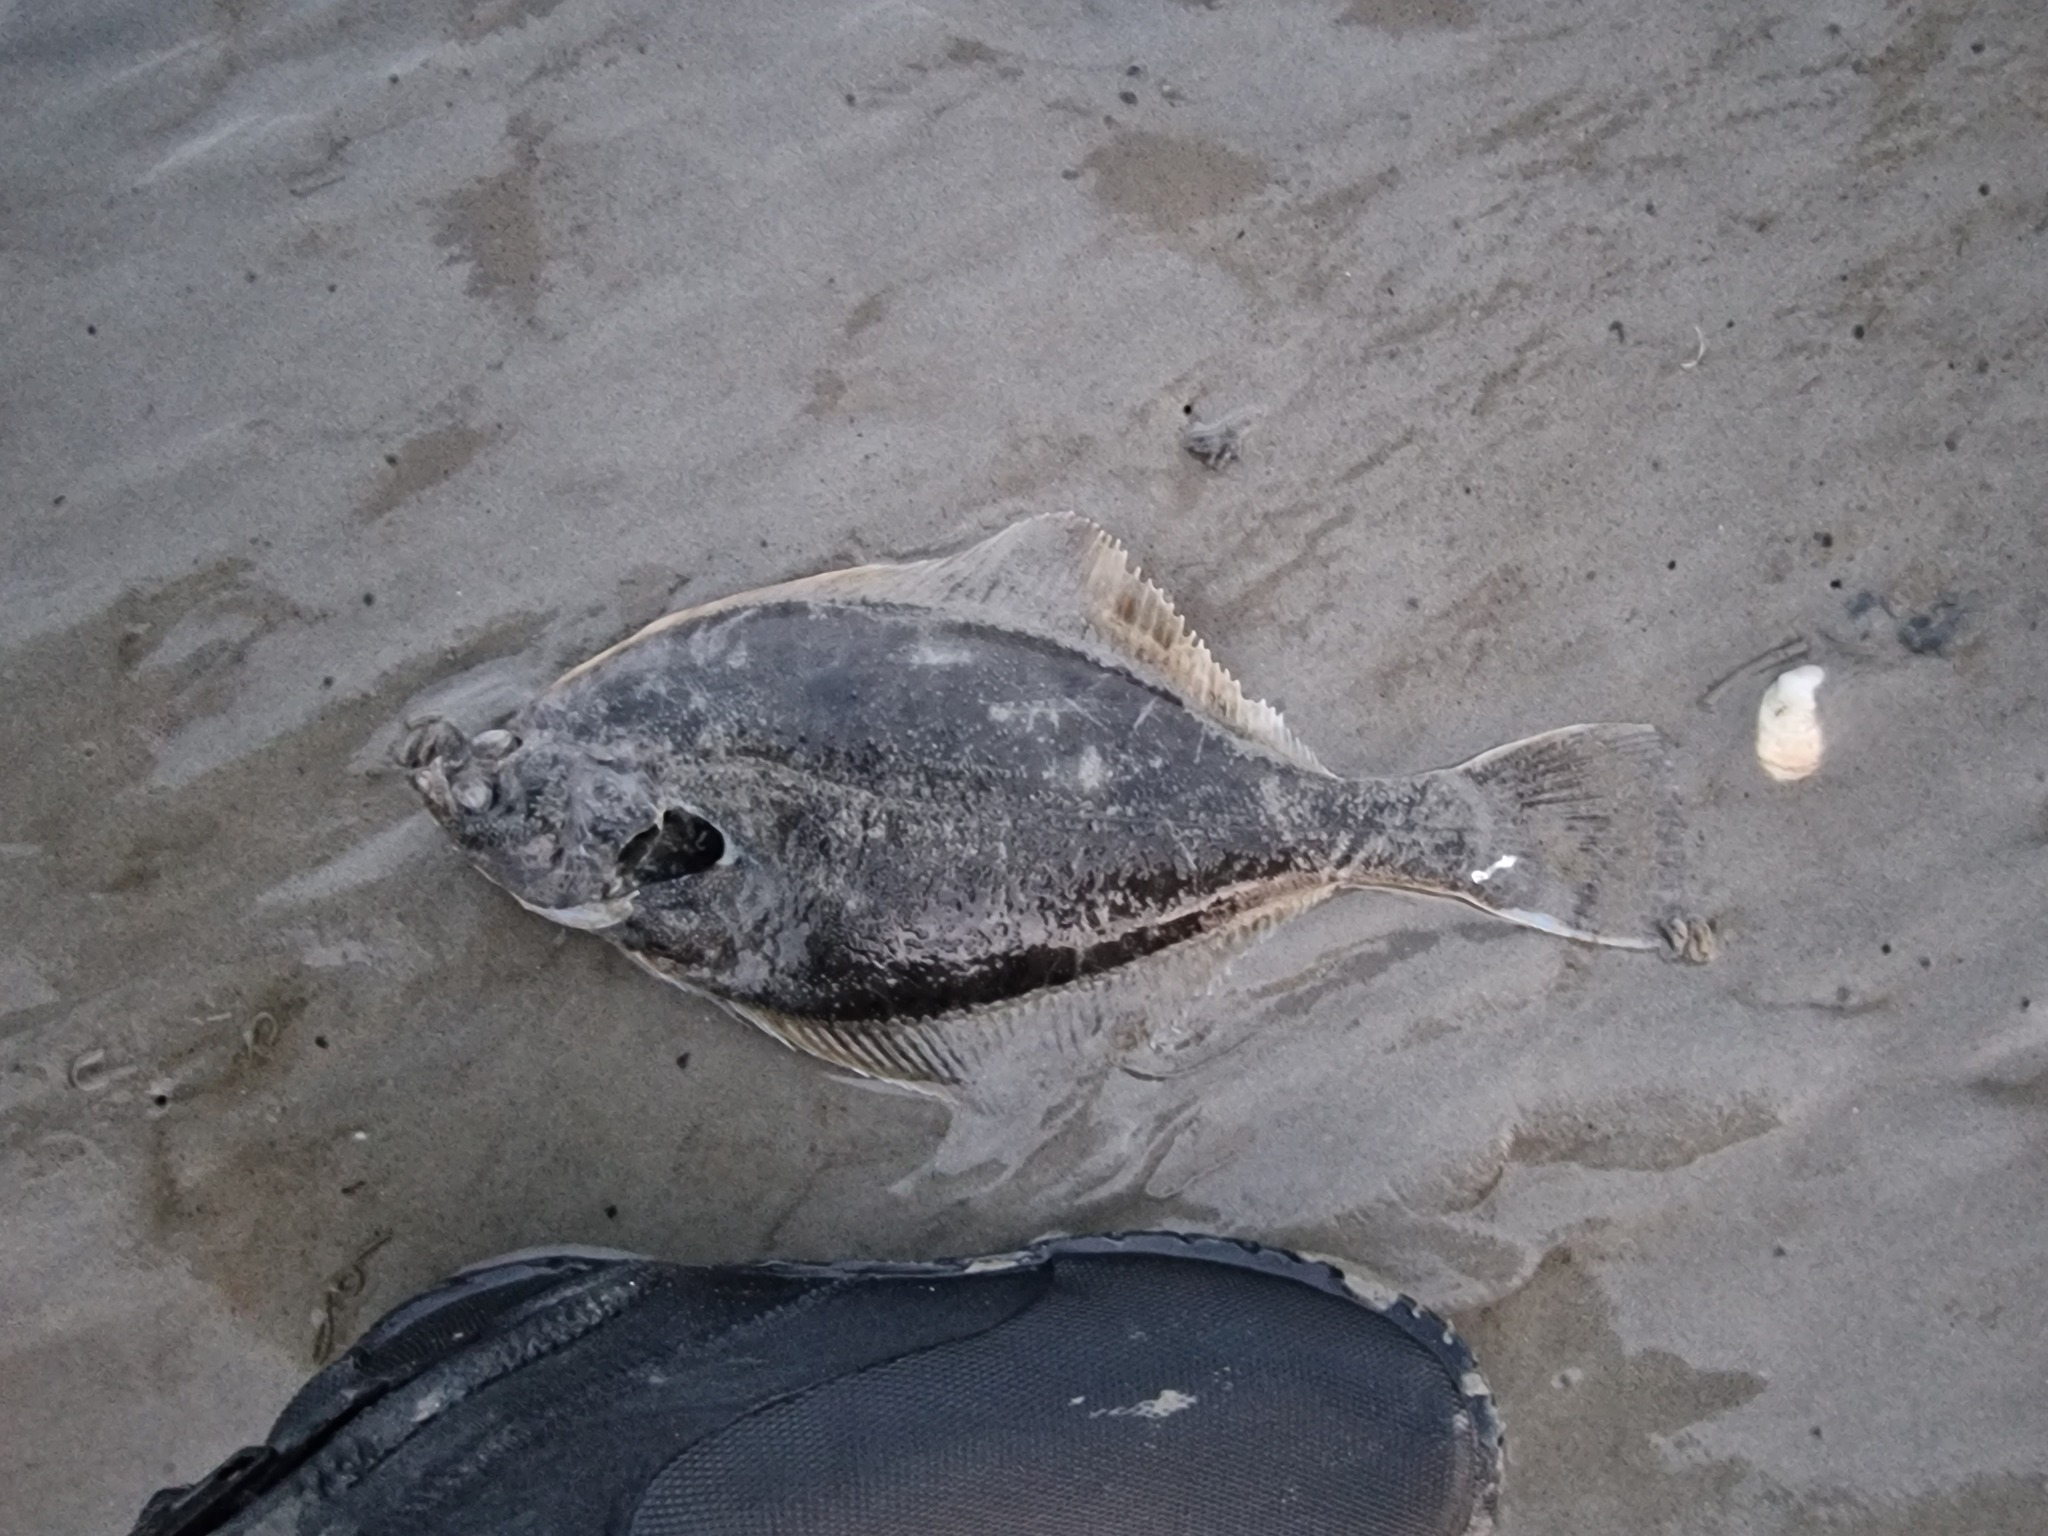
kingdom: Animalia
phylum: Chordata
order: Pleuronectiformes
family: Pleuronectidae
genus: Platichthys
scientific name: Platichthys flesus
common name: European flounder
